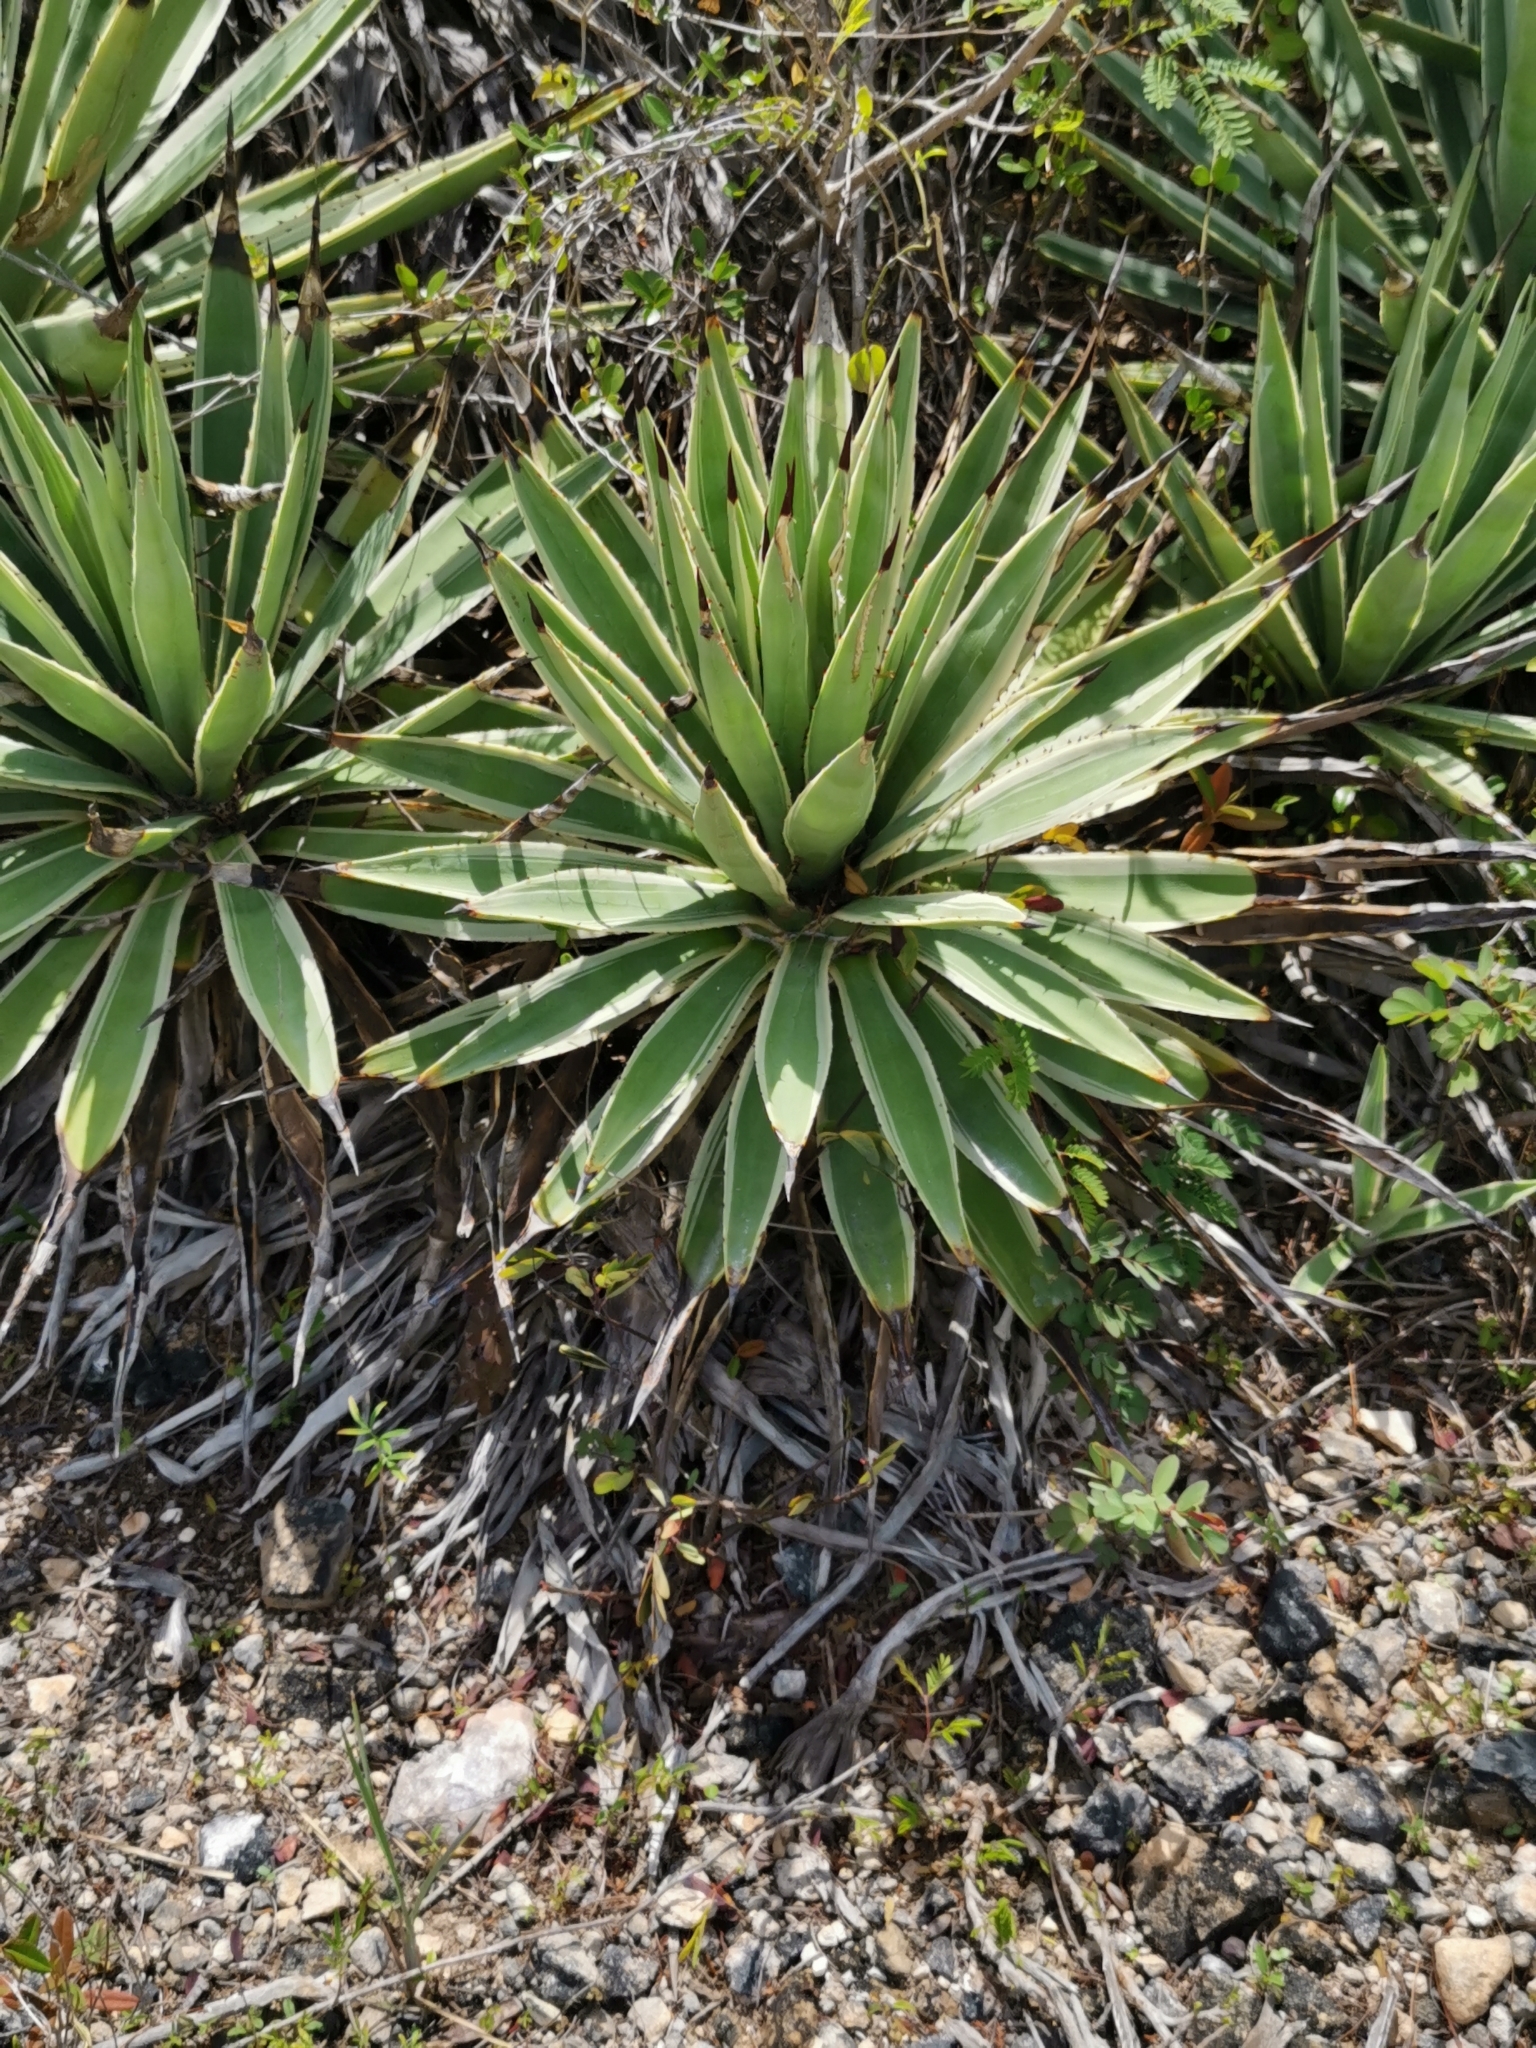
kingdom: Plantae
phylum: Tracheophyta
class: Liliopsida
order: Asparagales
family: Asparagaceae
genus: Agave
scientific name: Agave angustifolia
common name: Mescal agave
